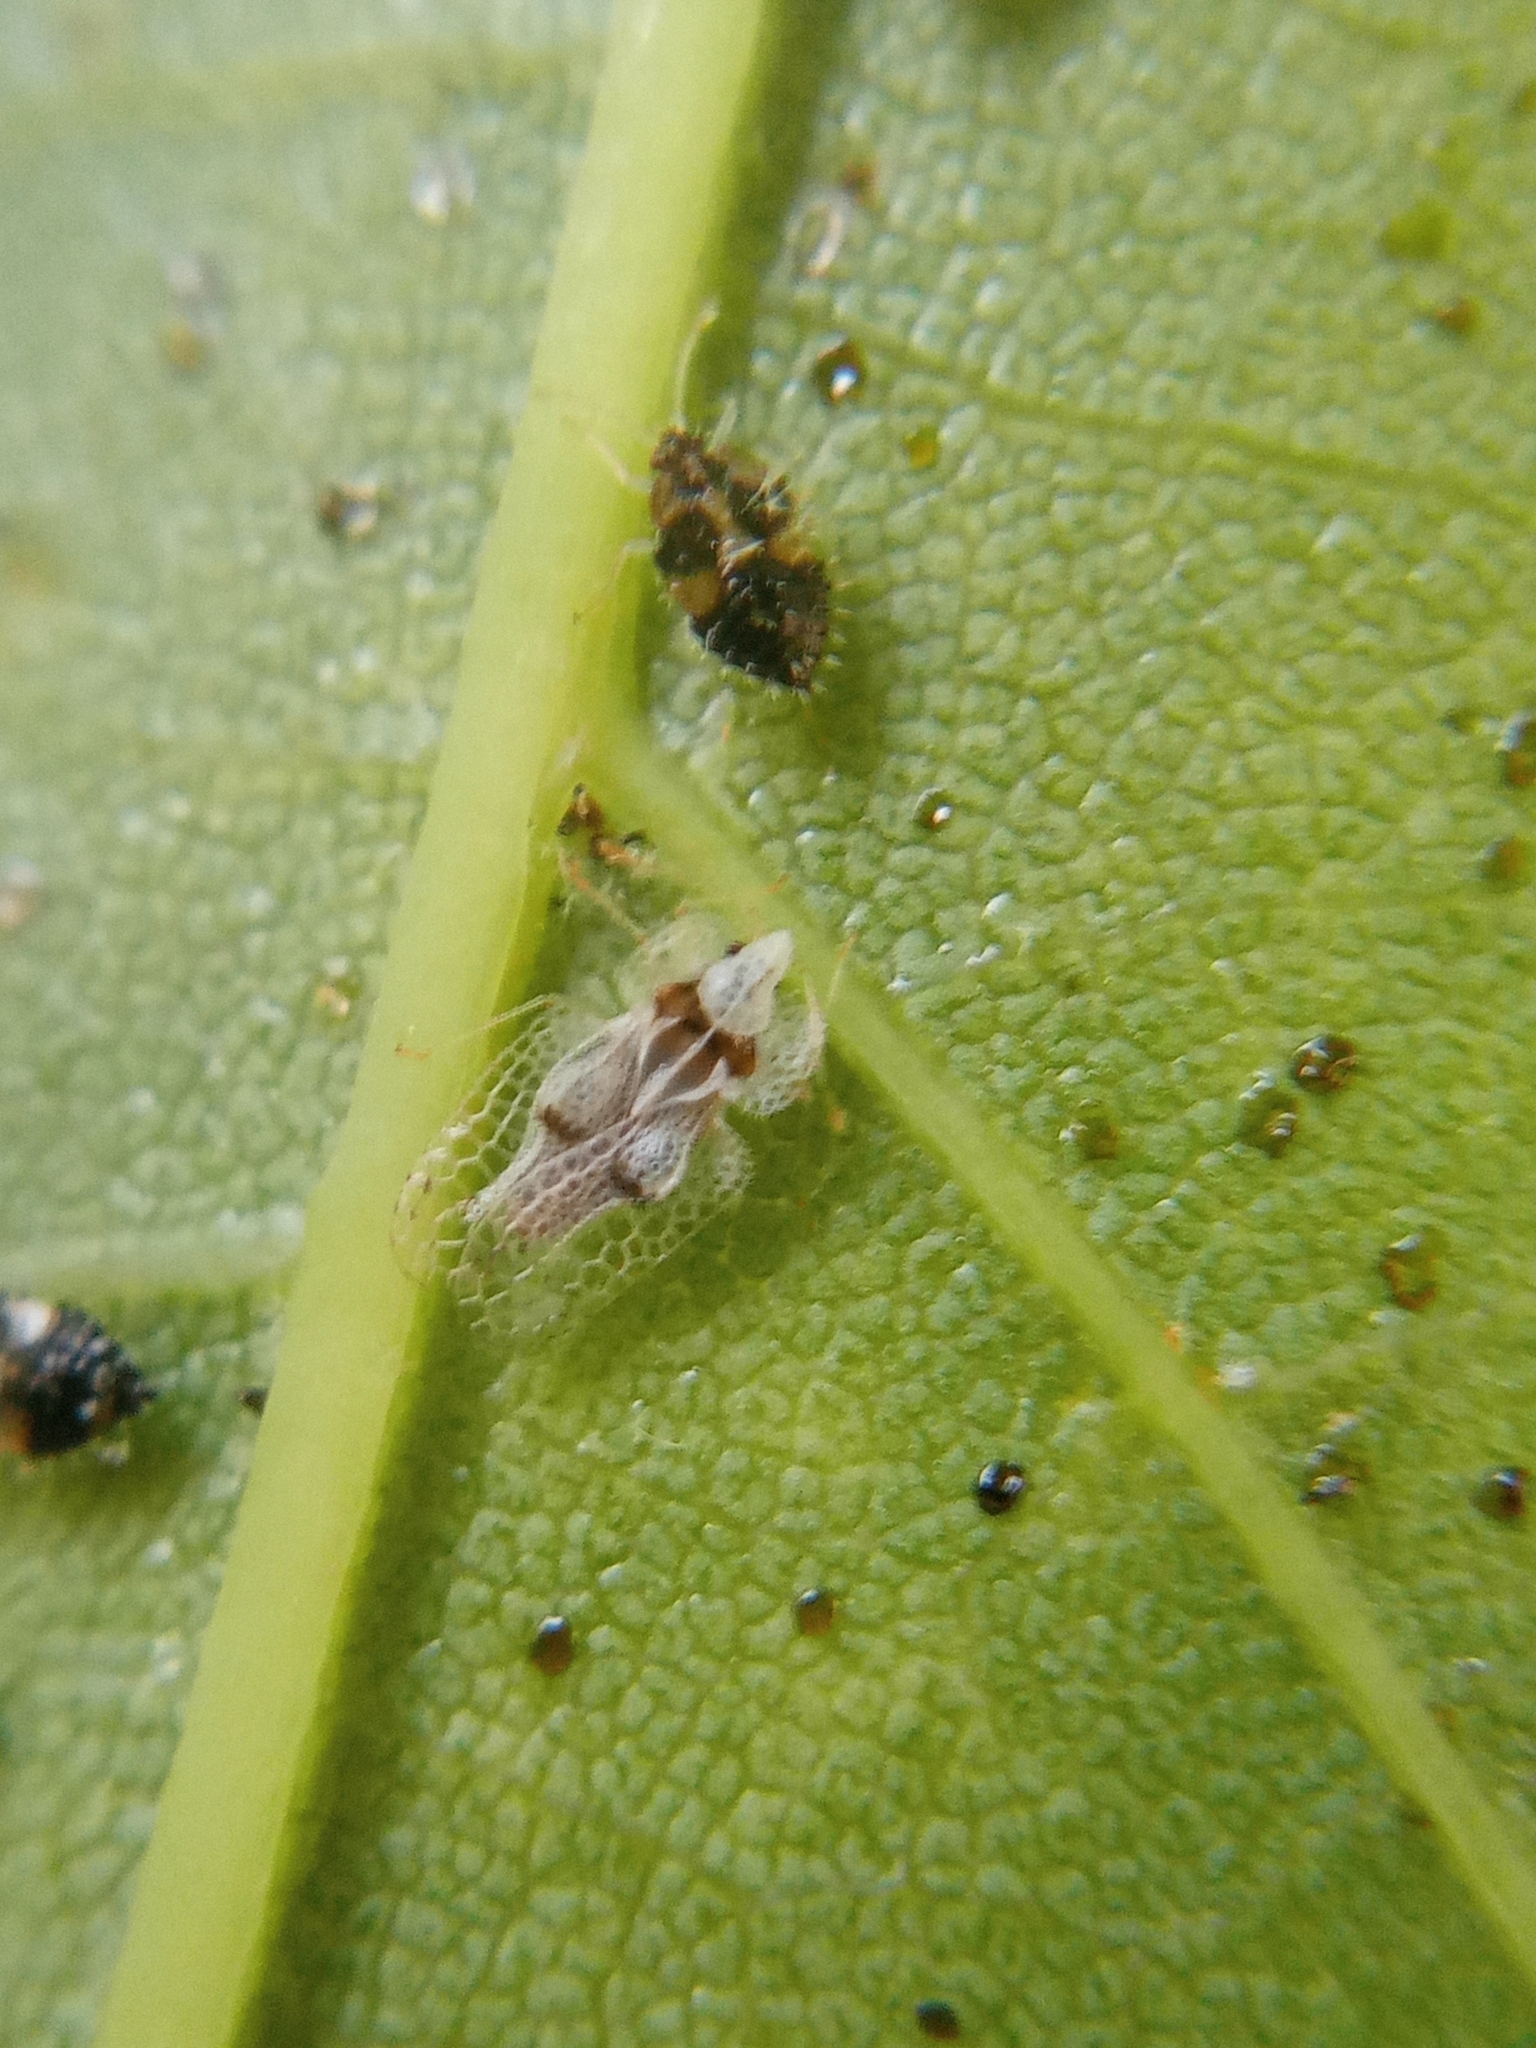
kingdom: Animalia
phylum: Arthropoda
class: Insecta
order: Hemiptera
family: Tingidae
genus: Corythucha
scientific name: Corythucha ciliata
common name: Sycamore lace bug
